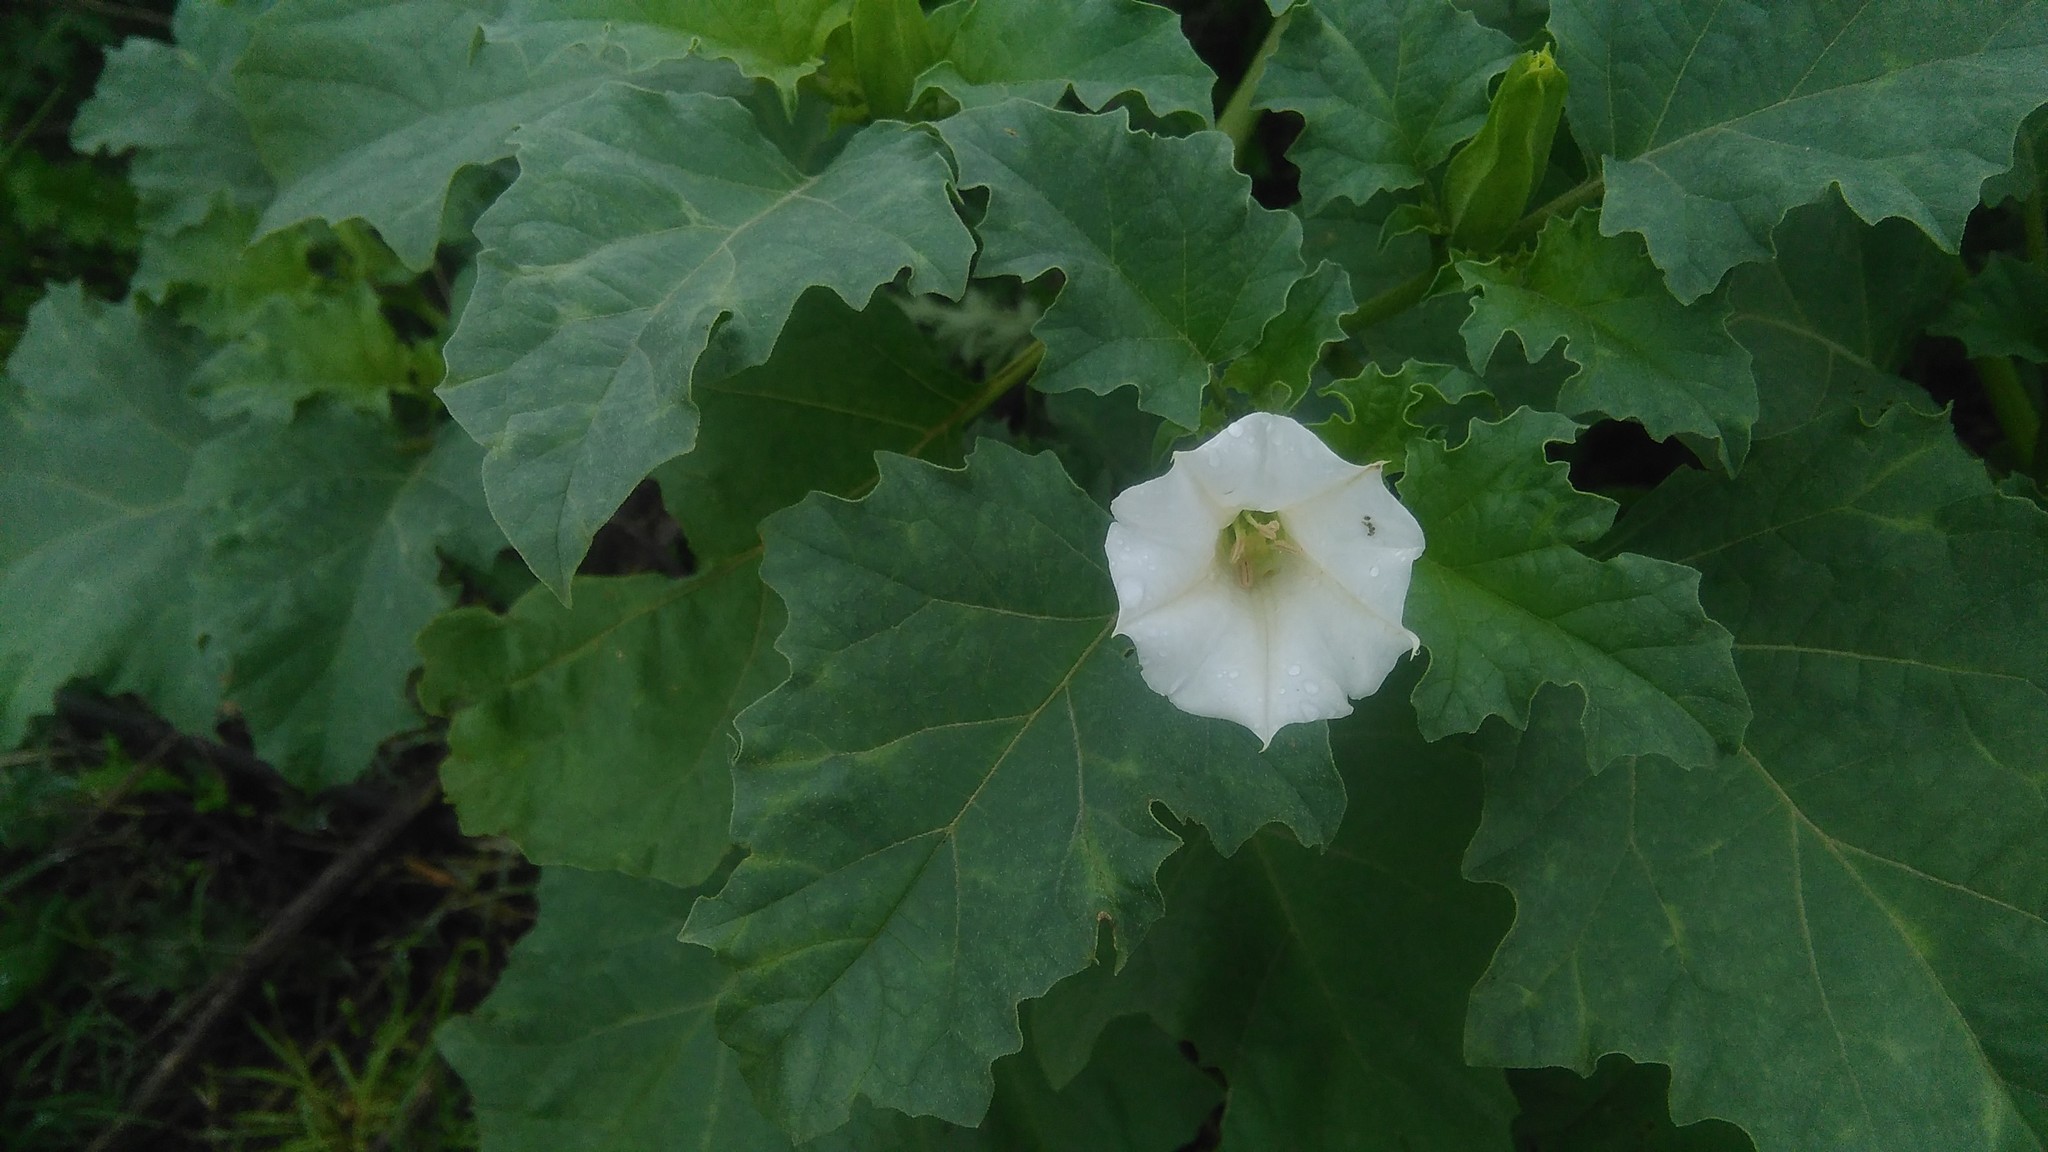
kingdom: Plantae
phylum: Tracheophyta
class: Magnoliopsida
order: Solanales
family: Solanaceae
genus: Datura
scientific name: Datura ferox
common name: Angel's-trumpets
